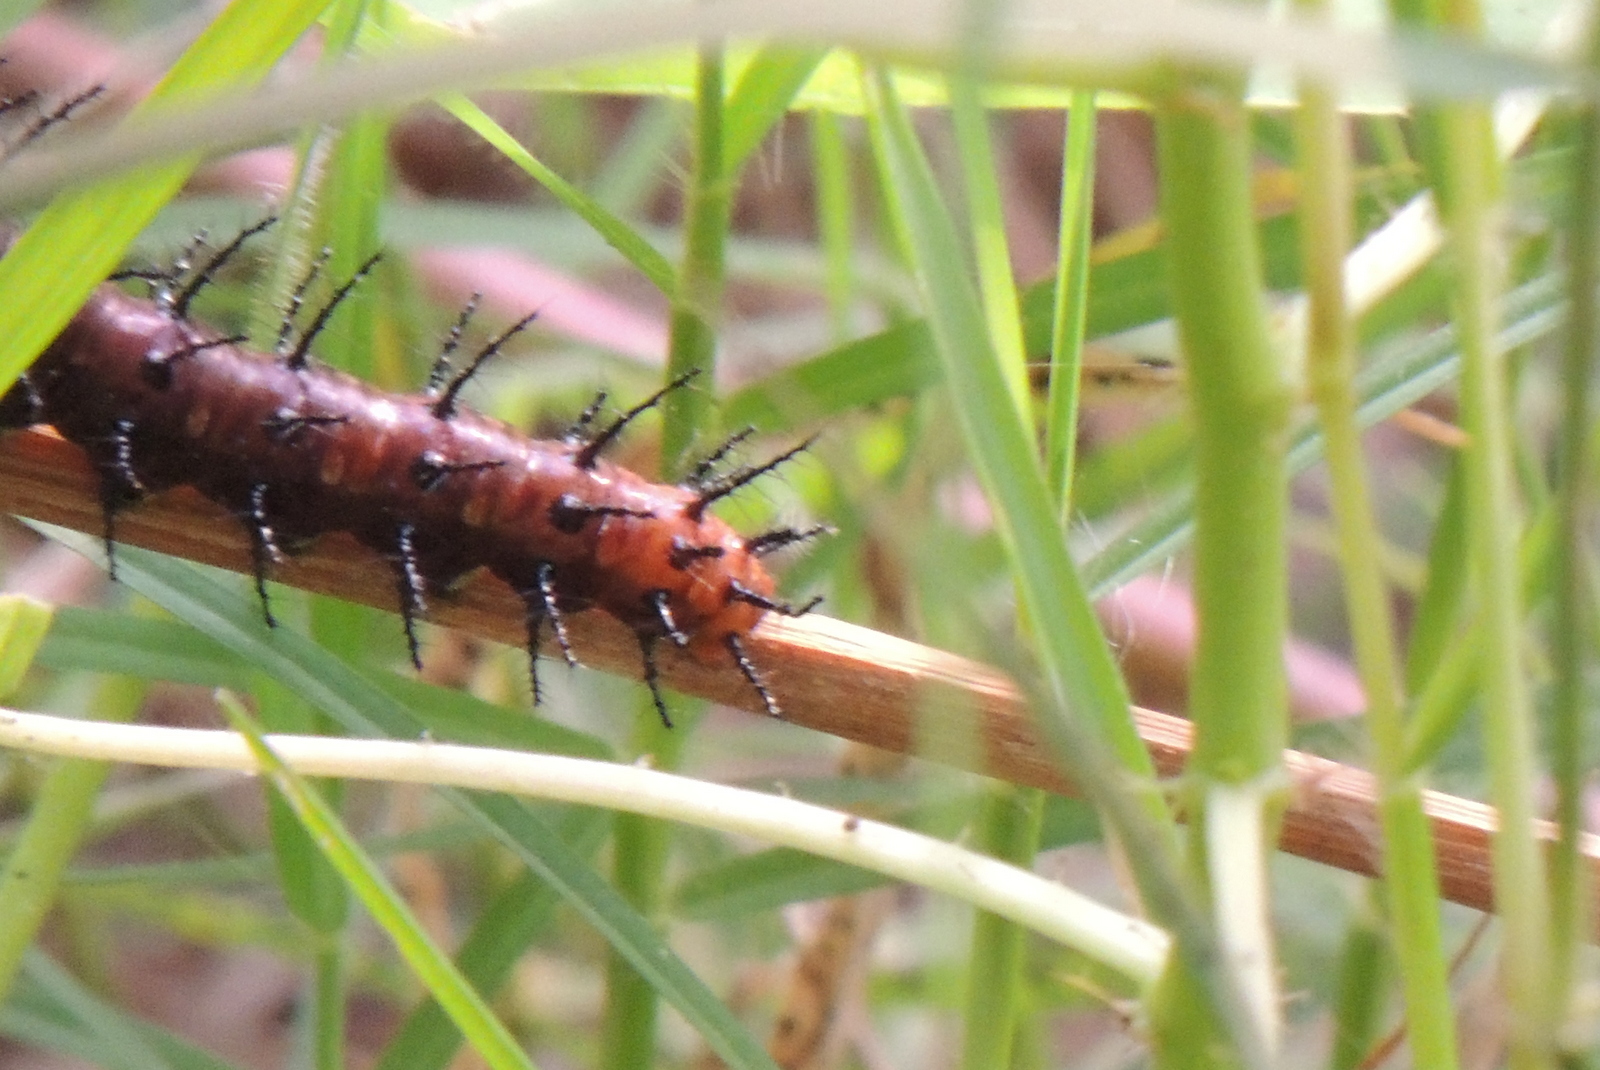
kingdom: Animalia
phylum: Arthropoda
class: Insecta
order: Lepidoptera
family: Nymphalidae
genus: Acraea
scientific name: Acraea terpsicore
